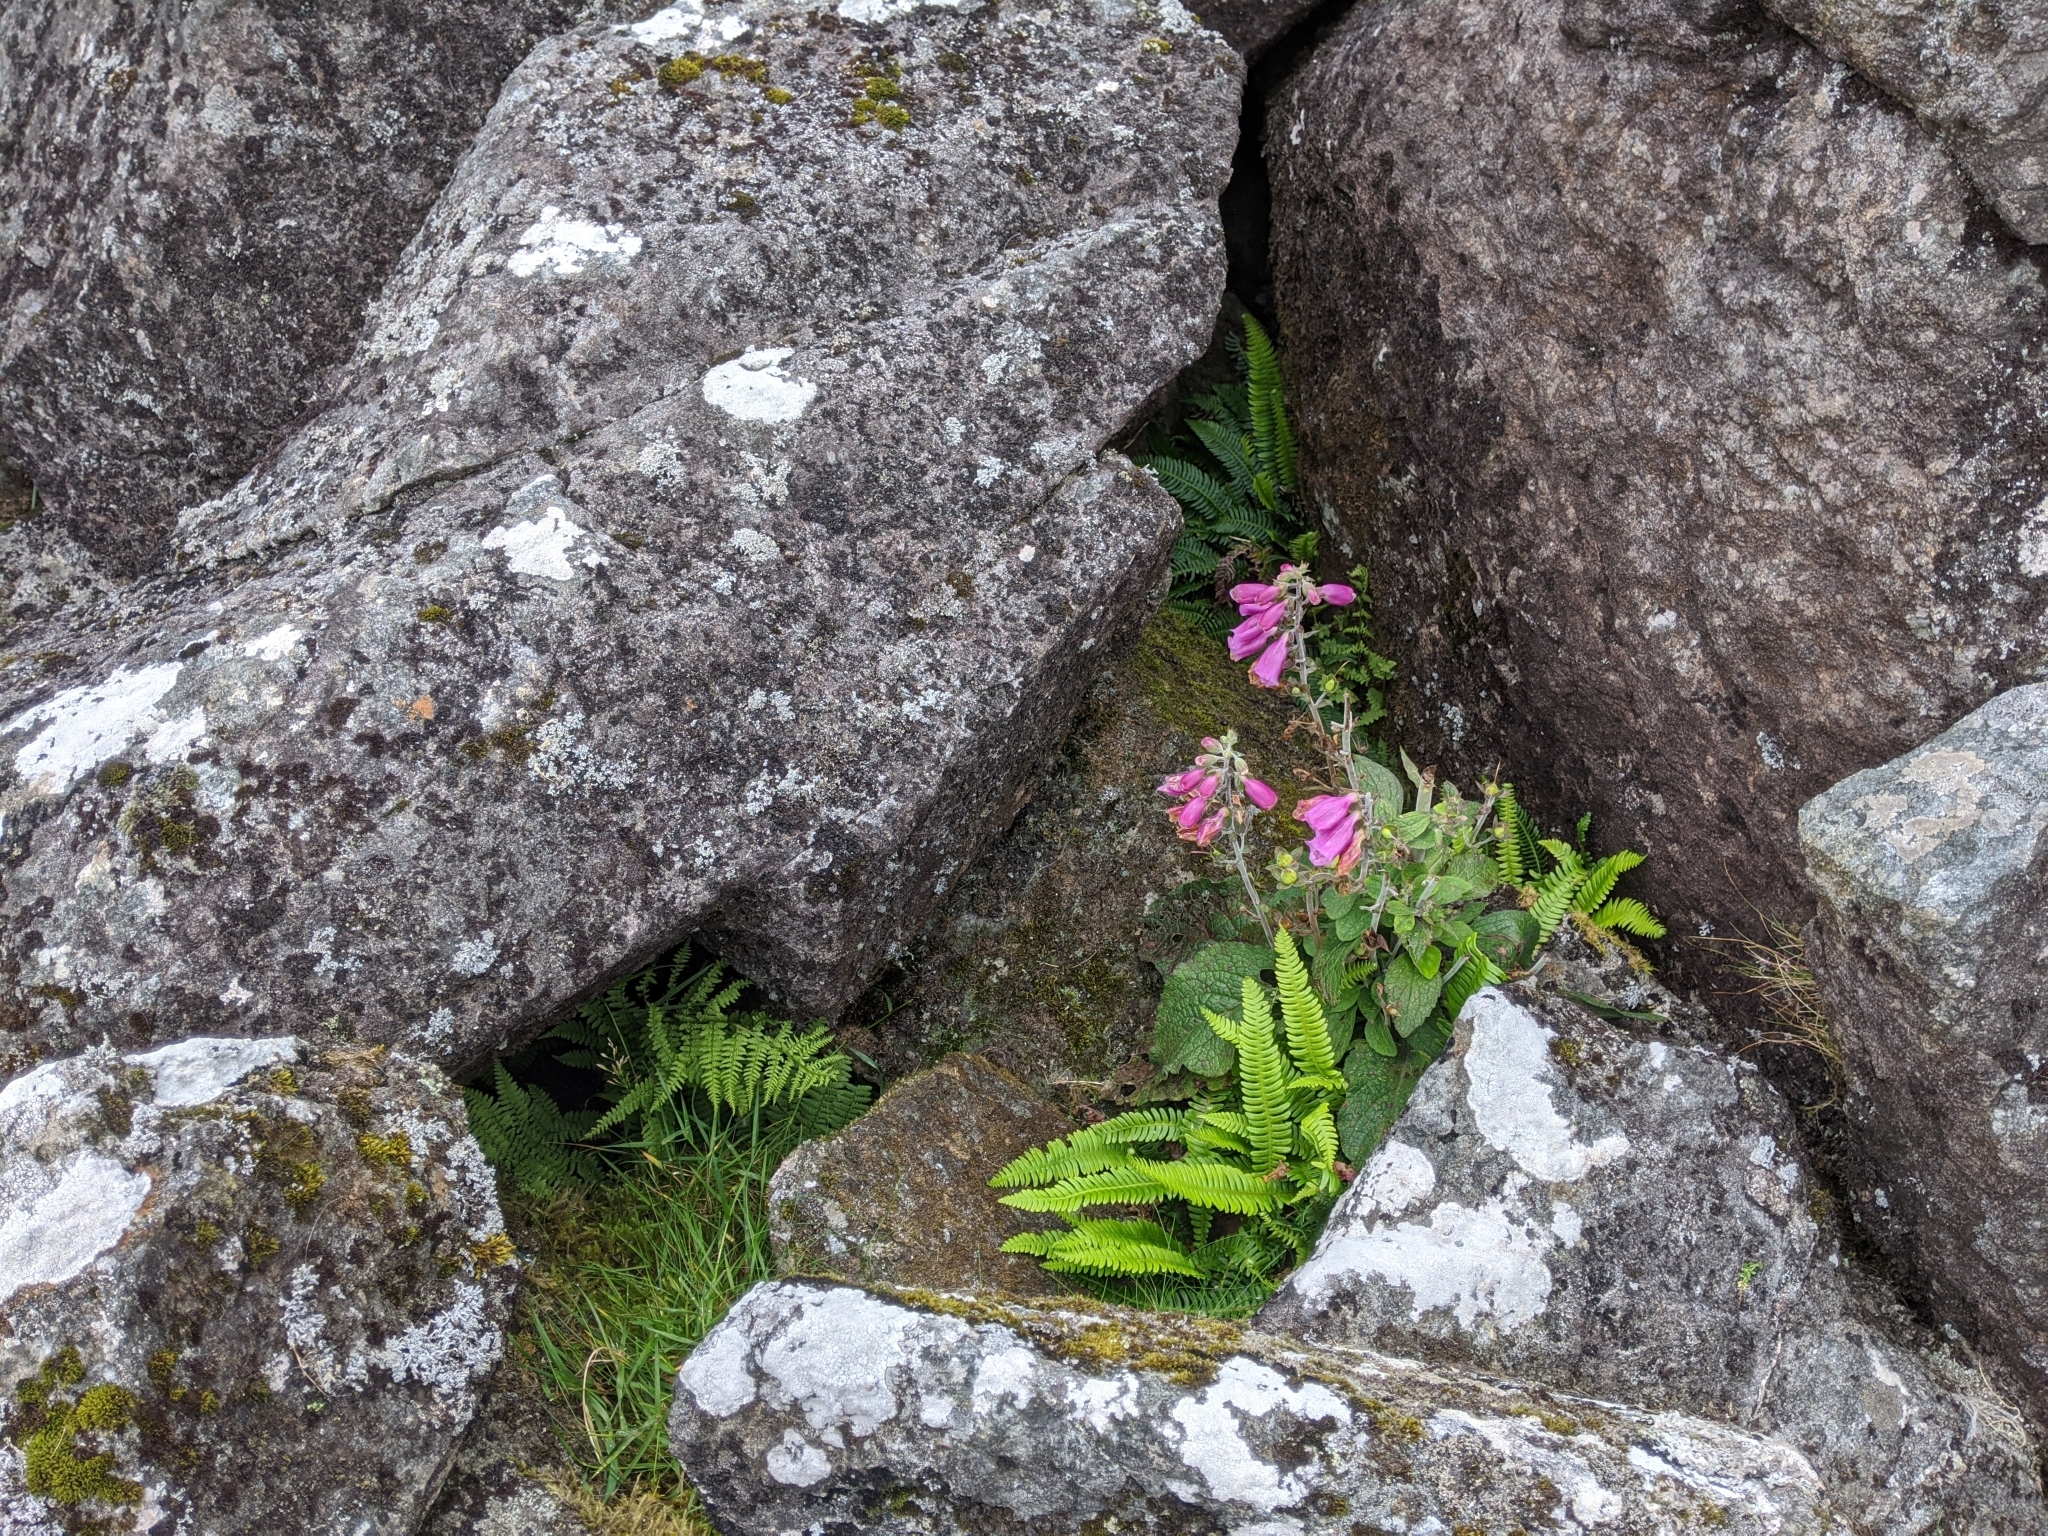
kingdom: Plantae
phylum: Tracheophyta
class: Magnoliopsida
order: Lamiales
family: Plantaginaceae
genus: Digitalis
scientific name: Digitalis purpurea
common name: Foxglove
